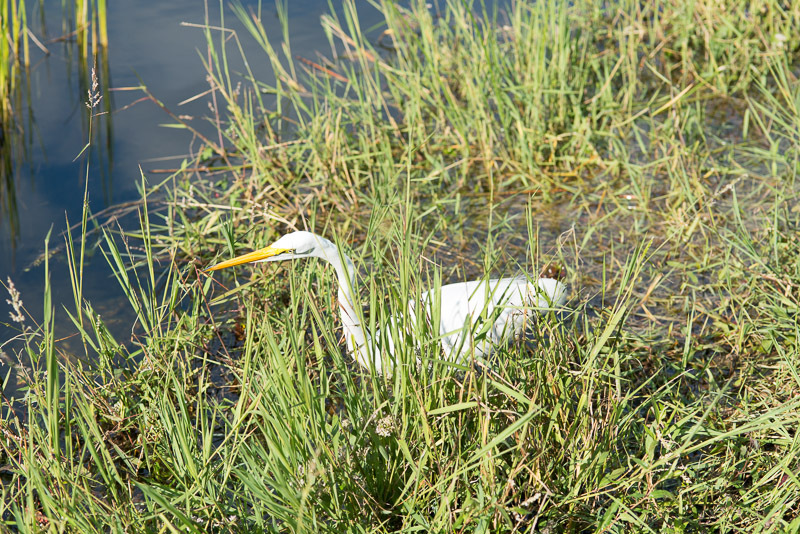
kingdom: Animalia
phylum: Chordata
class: Aves
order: Pelecaniformes
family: Ardeidae
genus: Ardea
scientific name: Ardea alba
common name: Great egret
